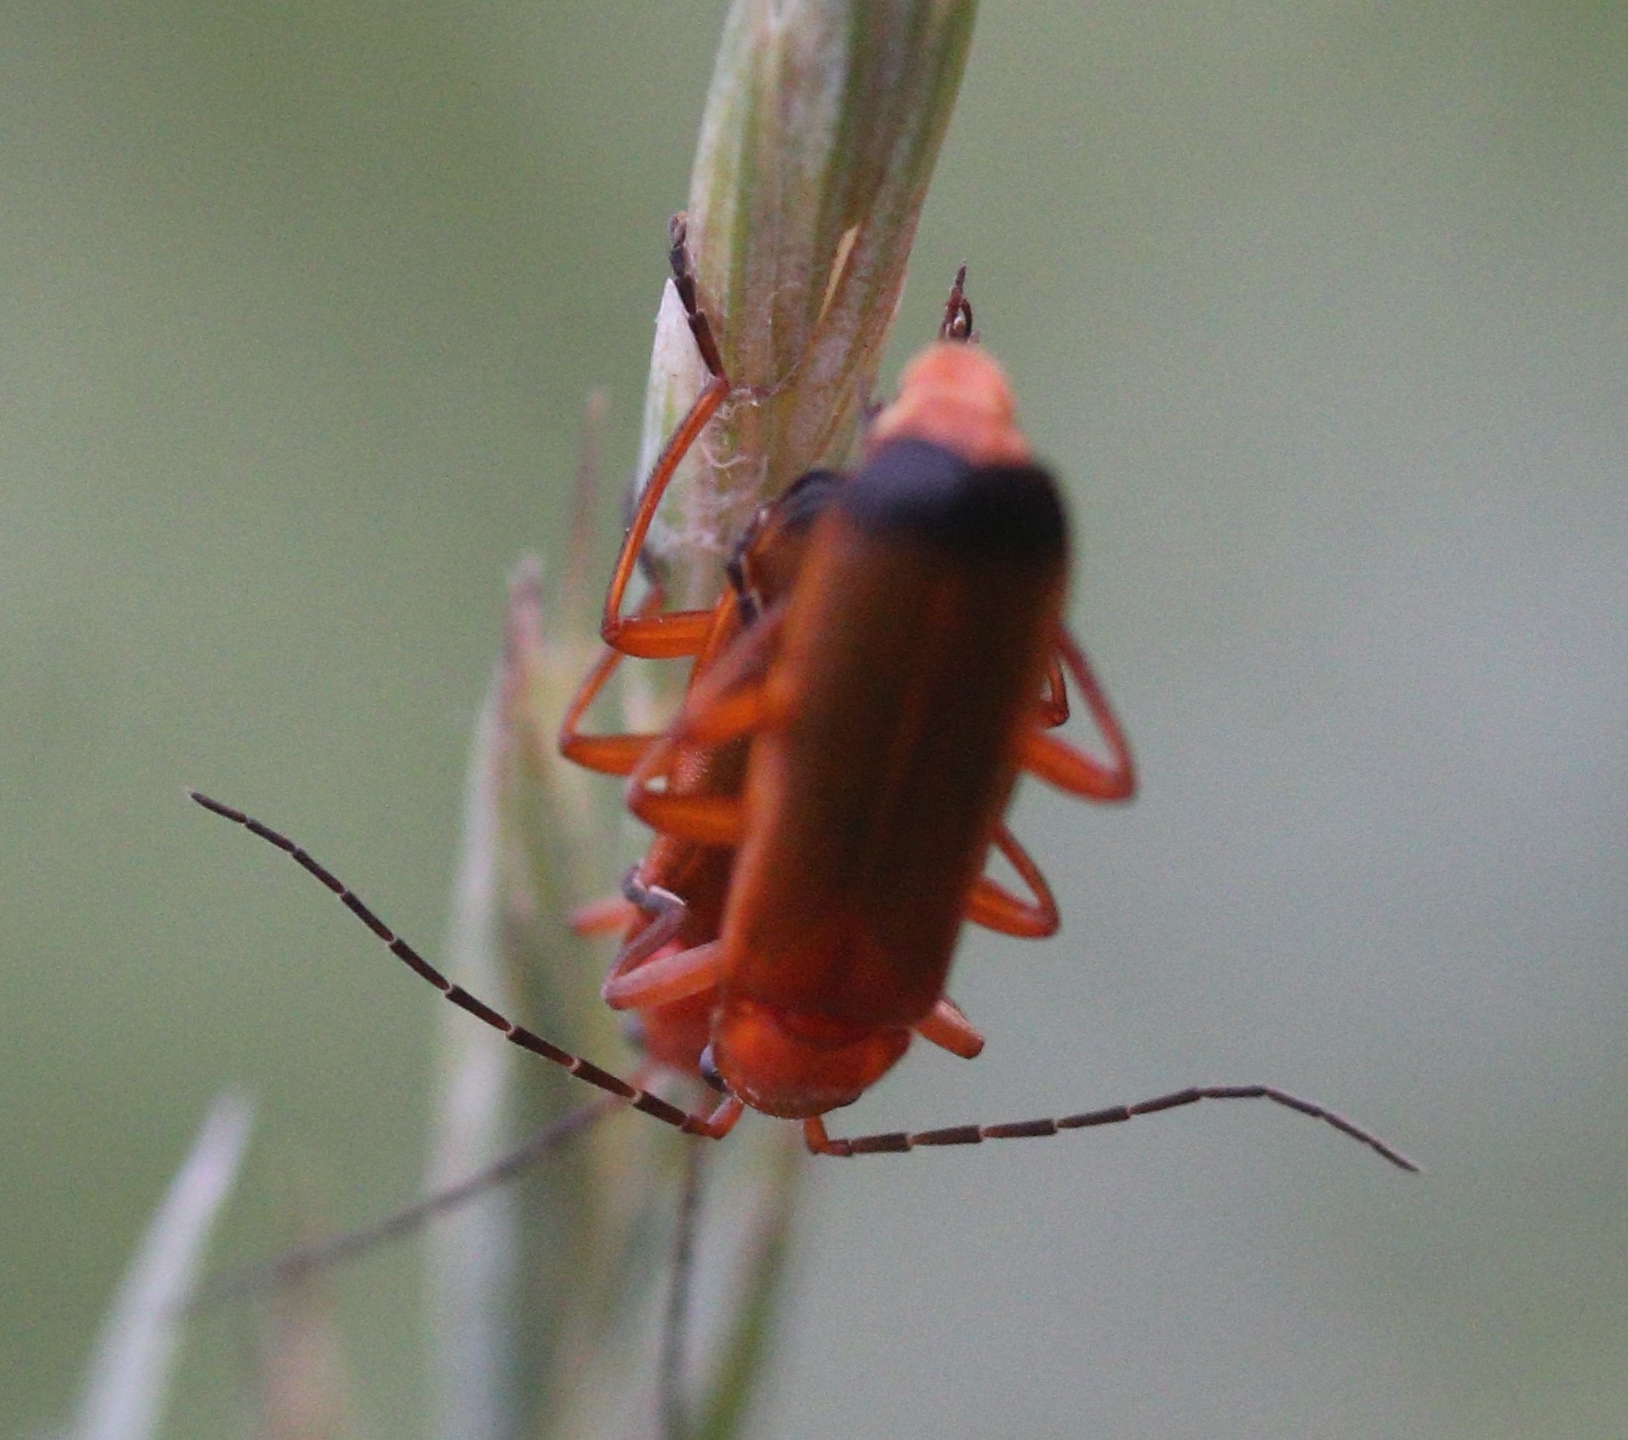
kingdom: Animalia
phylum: Arthropoda
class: Insecta
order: Coleoptera
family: Cantharidae
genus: Rhagonycha
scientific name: Rhagonycha fulva
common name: Common red soldier beetle
